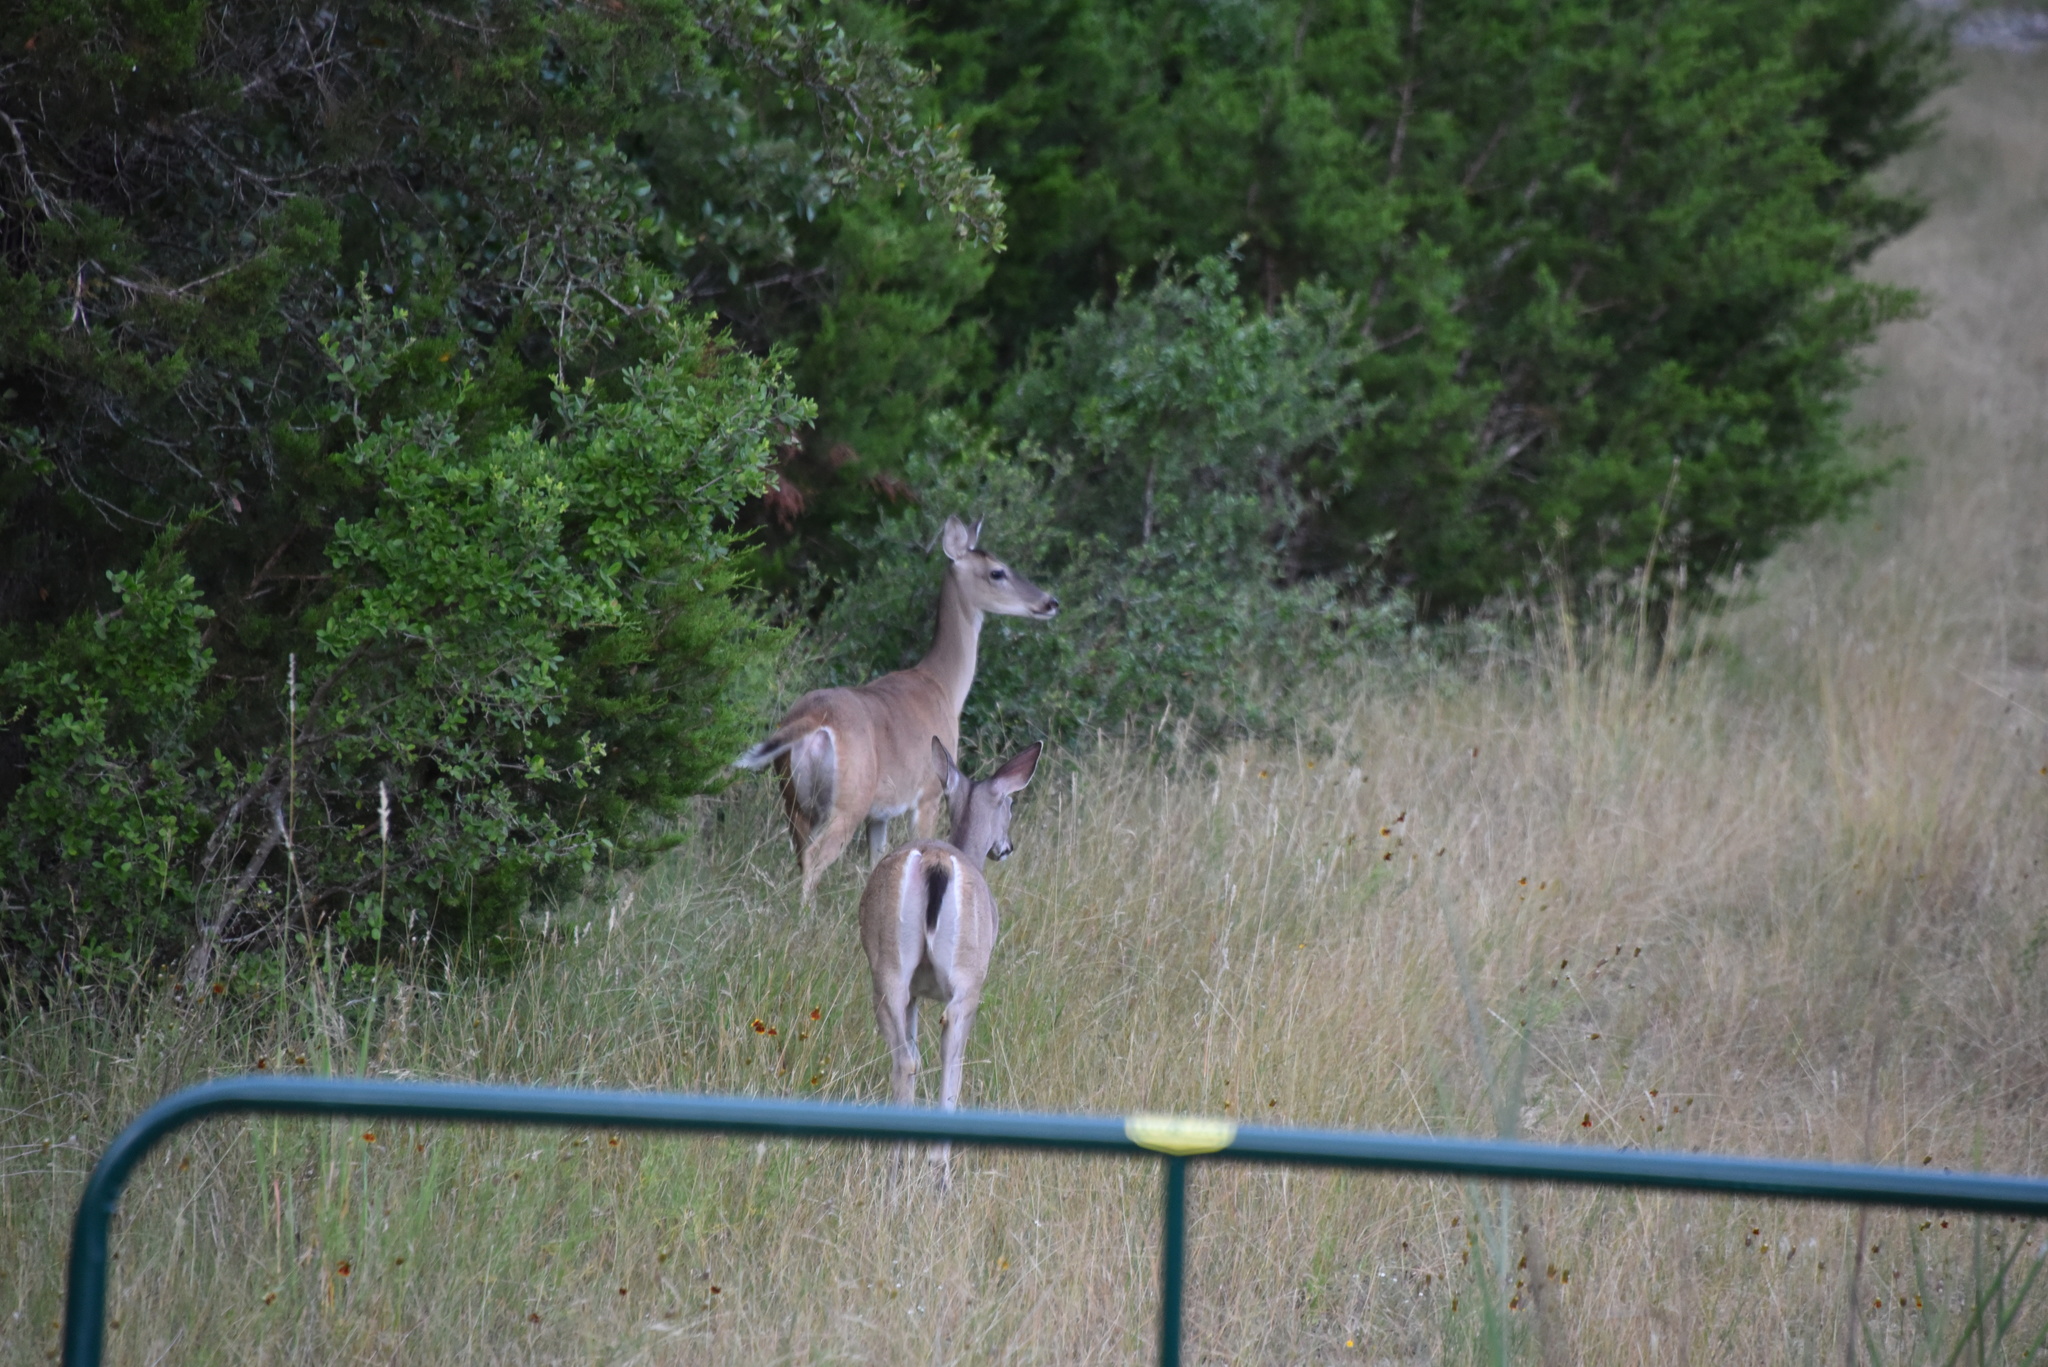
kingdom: Animalia
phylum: Chordata
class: Mammalia
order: Artiodactyla
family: Cervidae
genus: Odocoileus
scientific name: Odocoileus virginianus
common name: White-tailed deer
